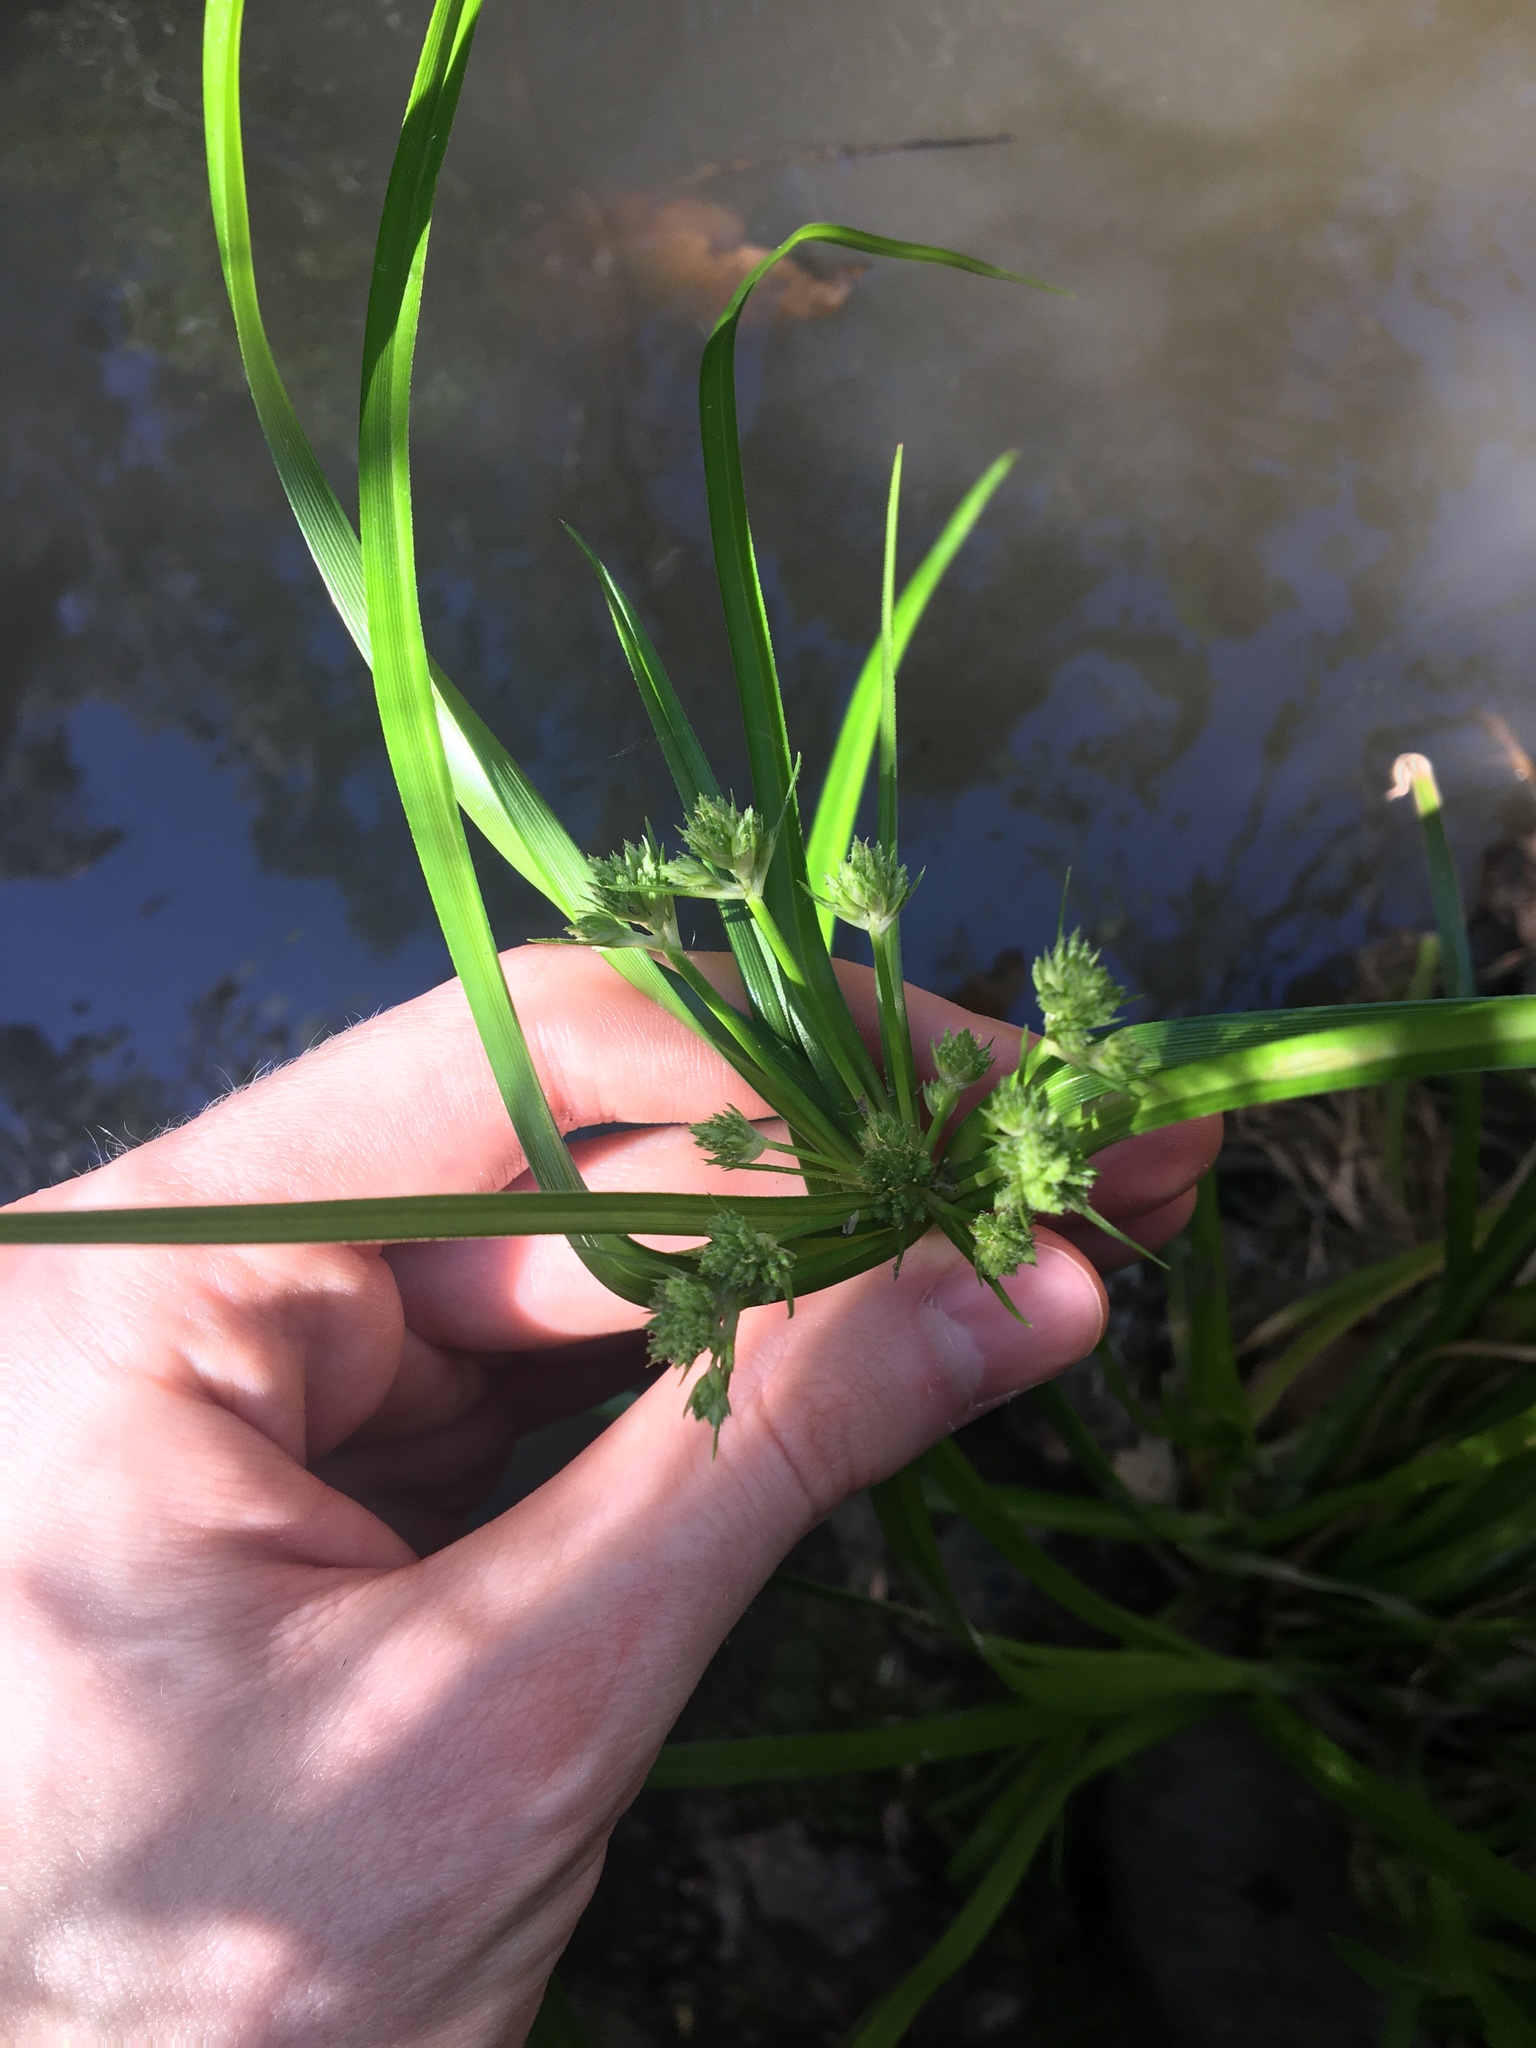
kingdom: Plantae
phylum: Tracheophyta
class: Liliopsida
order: Poales
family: Cyperaceae
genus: Cyperus
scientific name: Cyperus eragrostis
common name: Tall flatsedge
